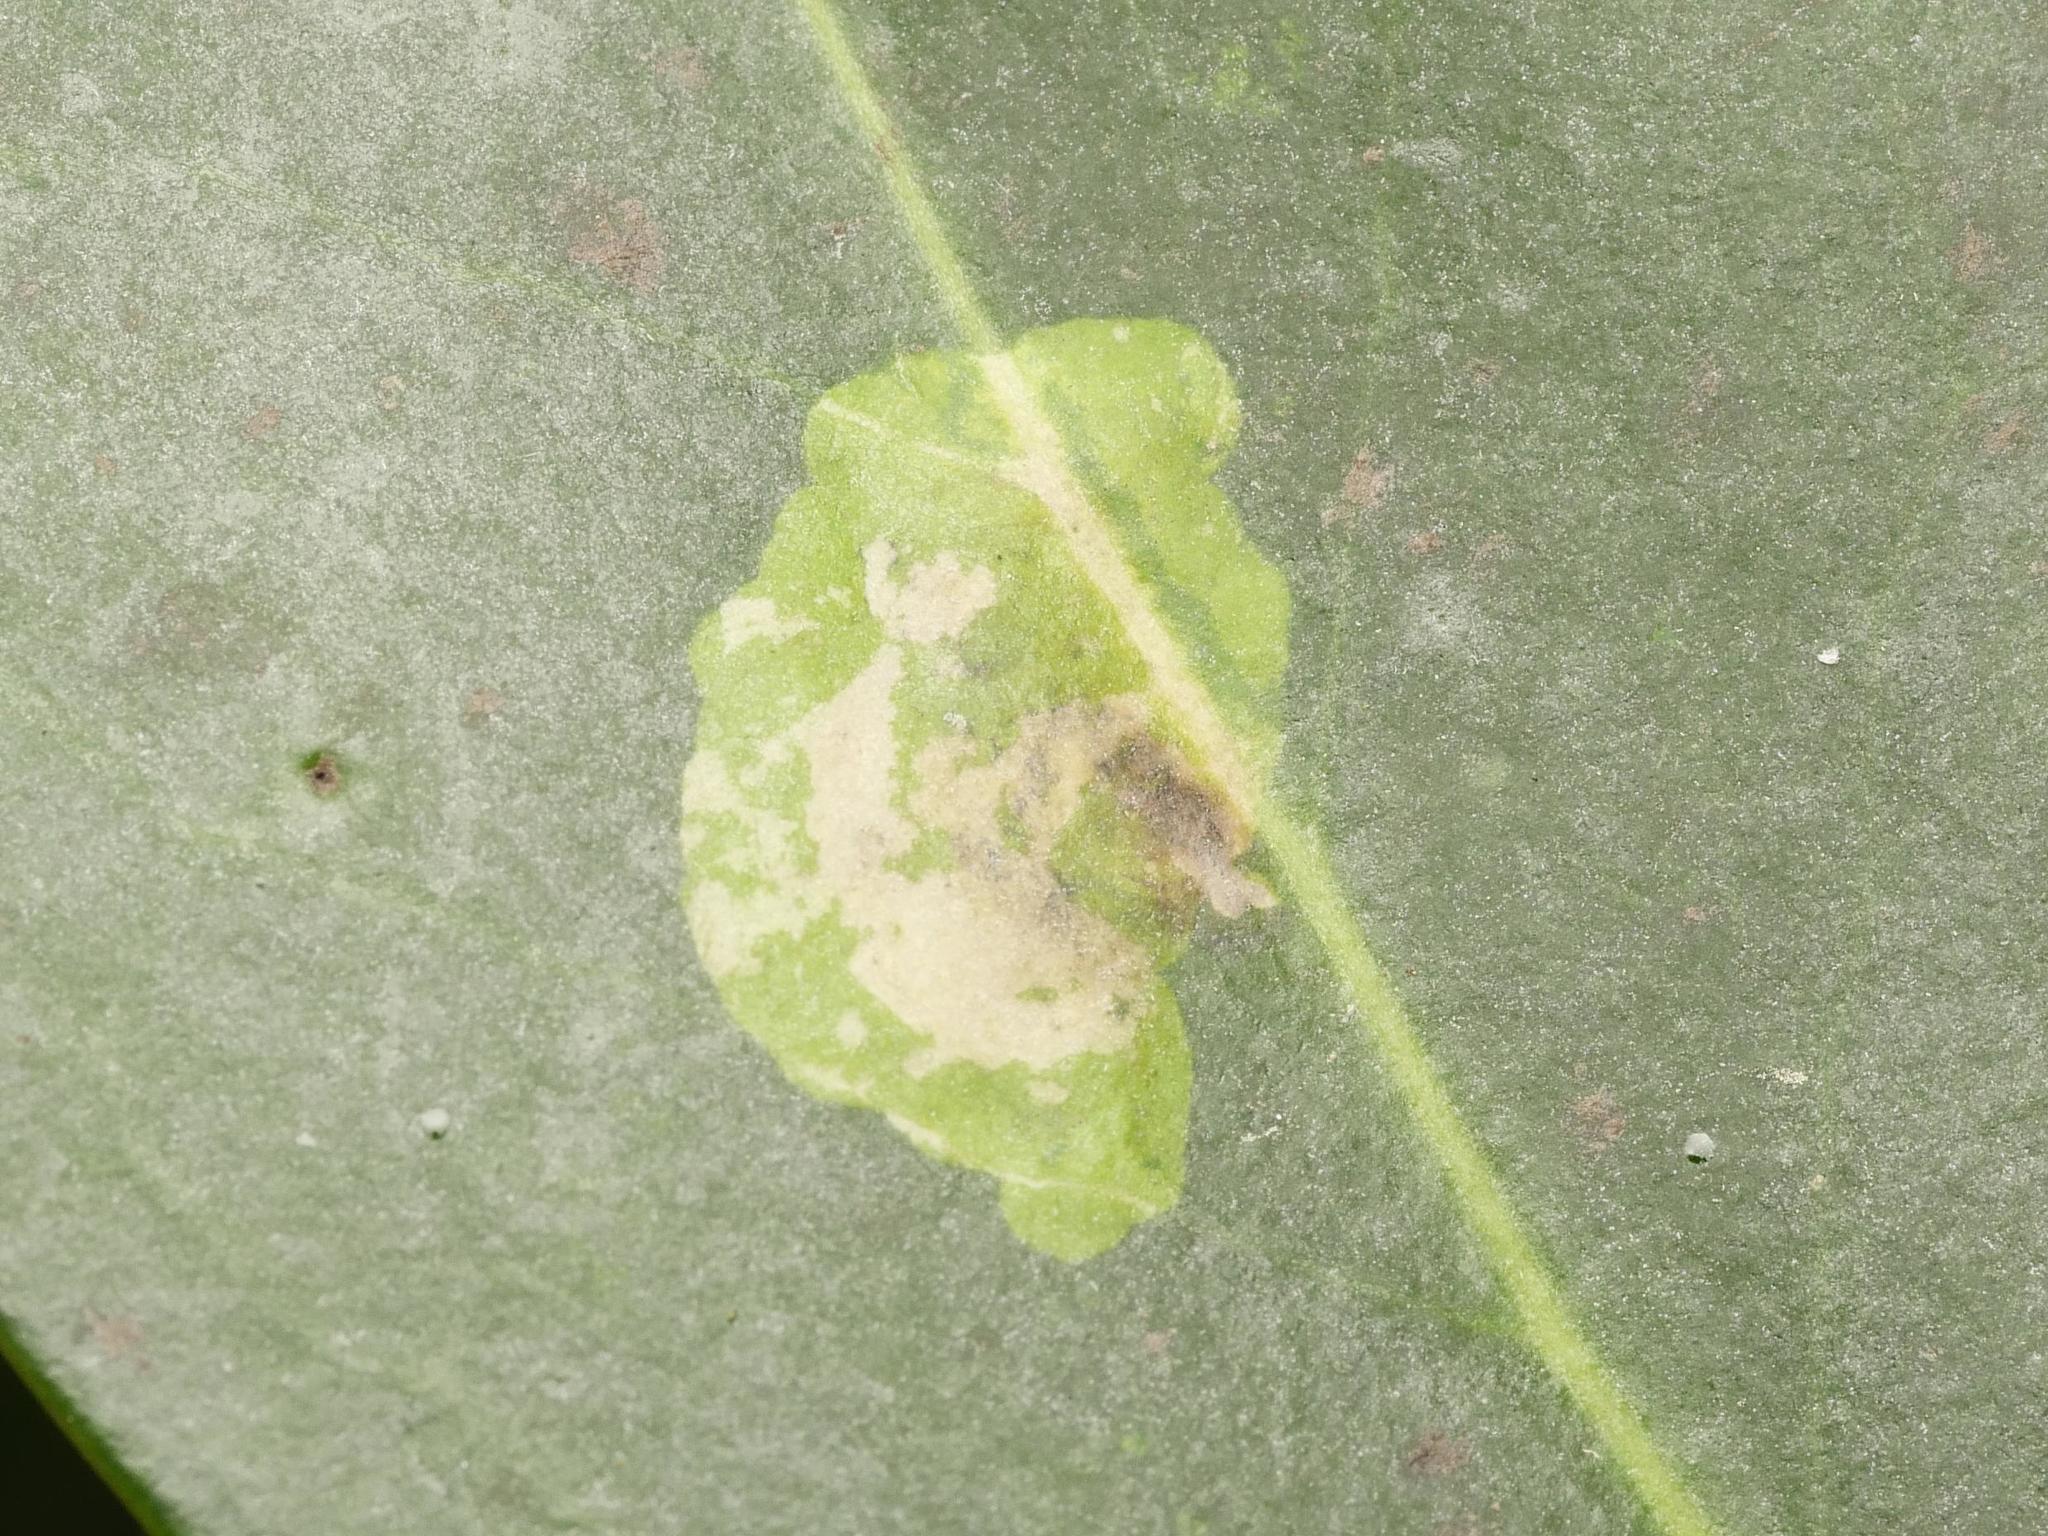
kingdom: Animalia
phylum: Arthropoda
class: Insecta
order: Diptera
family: Agromyzidae
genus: Phytomyza
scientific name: Phytomyza ilicis
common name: Holly leafminer
